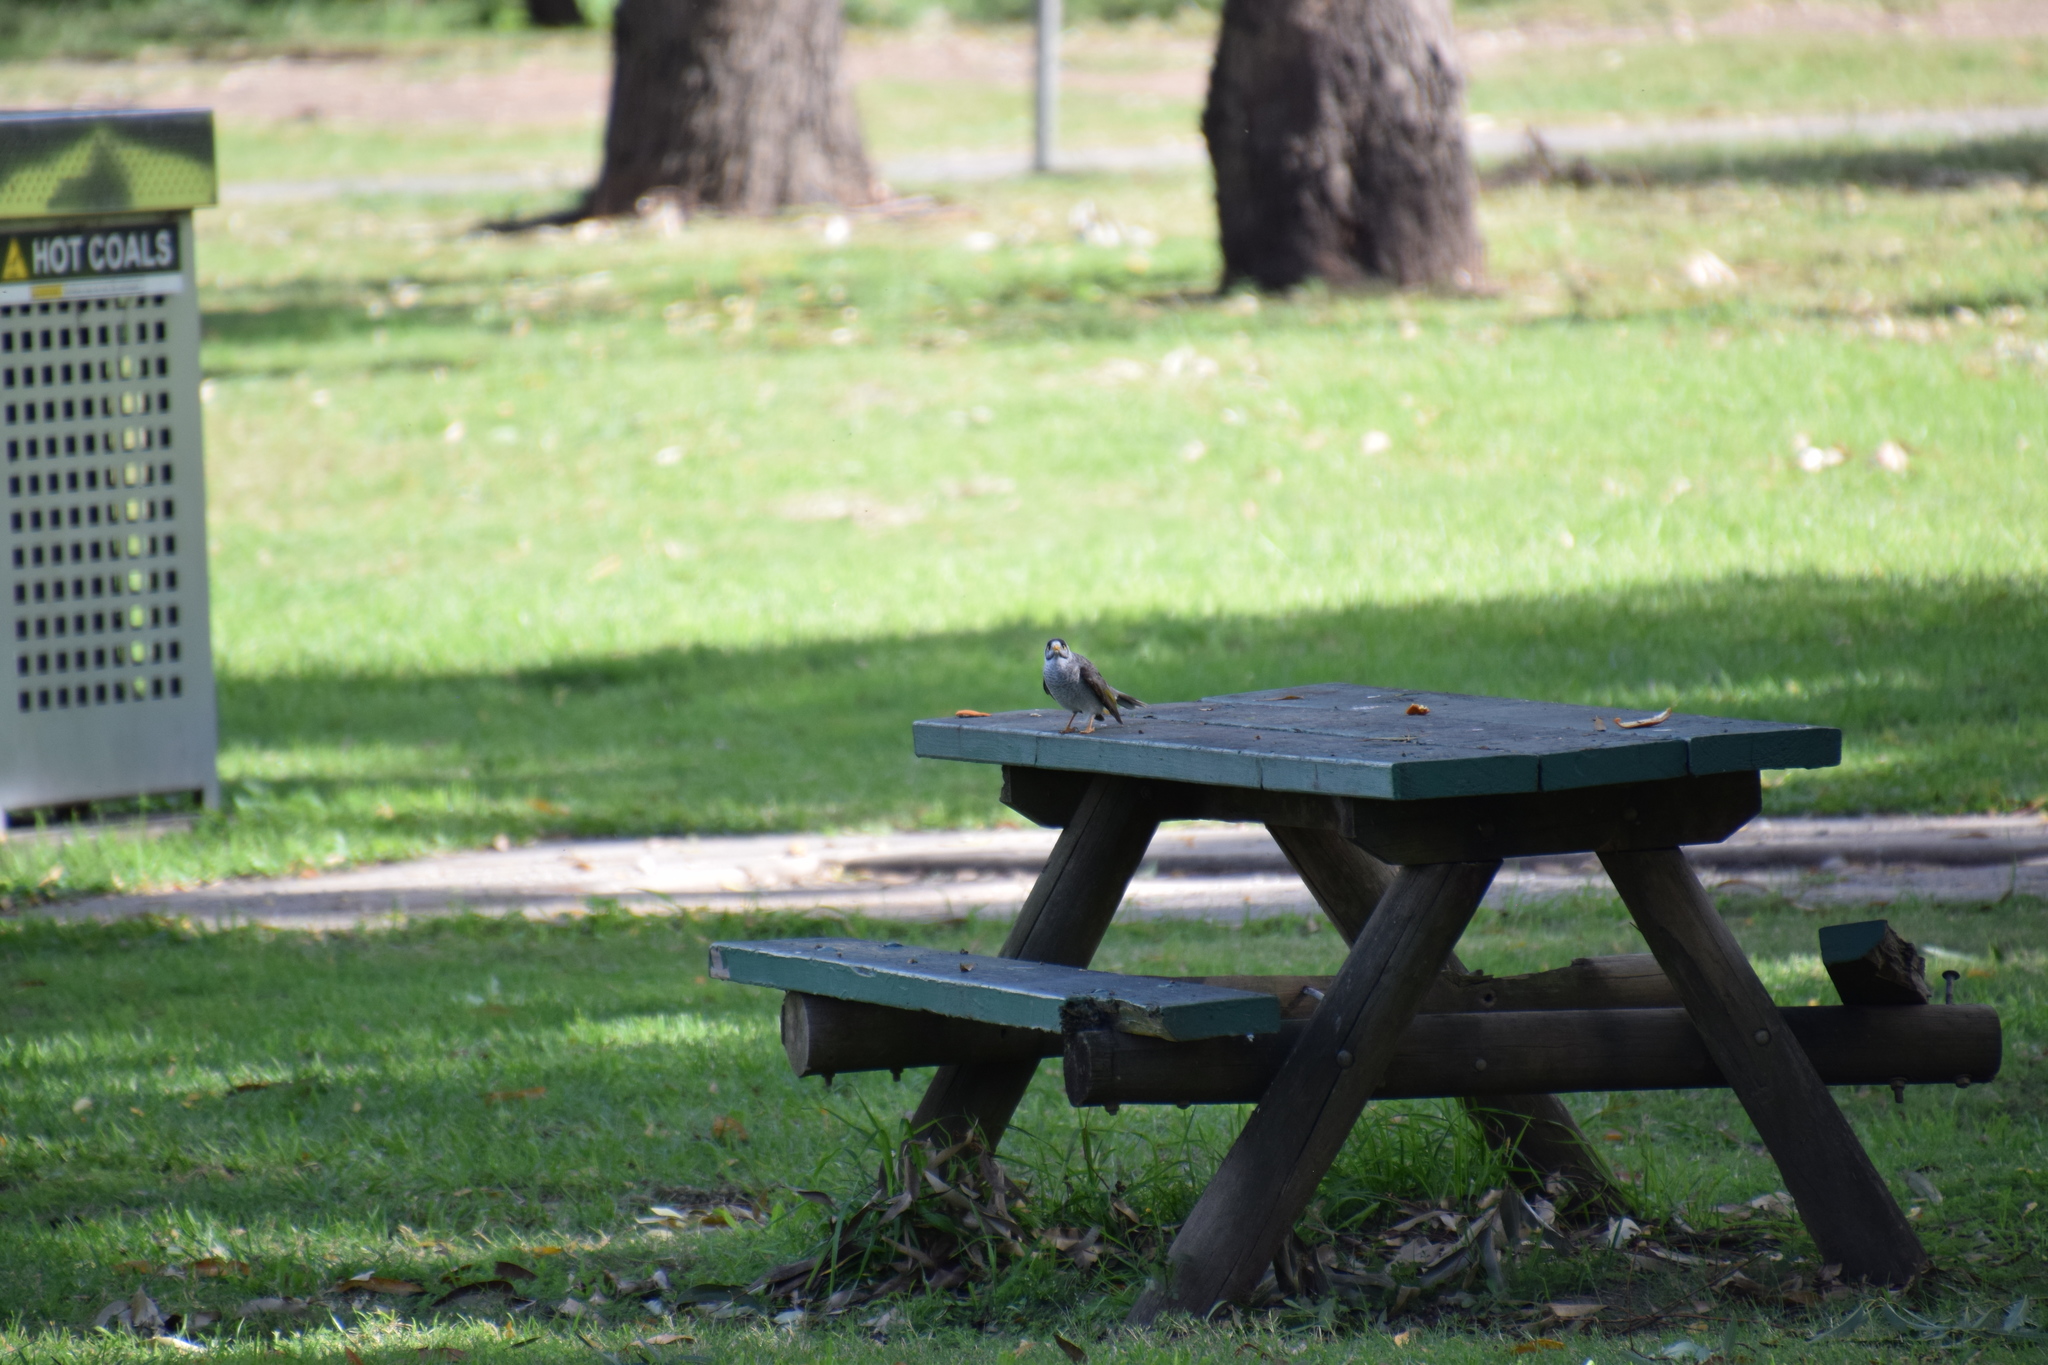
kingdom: Animalia
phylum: Chordata
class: Aves
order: Passeriformes
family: Meliphagidae
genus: Manorina
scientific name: Manorina melanocephala
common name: Noisy miner
